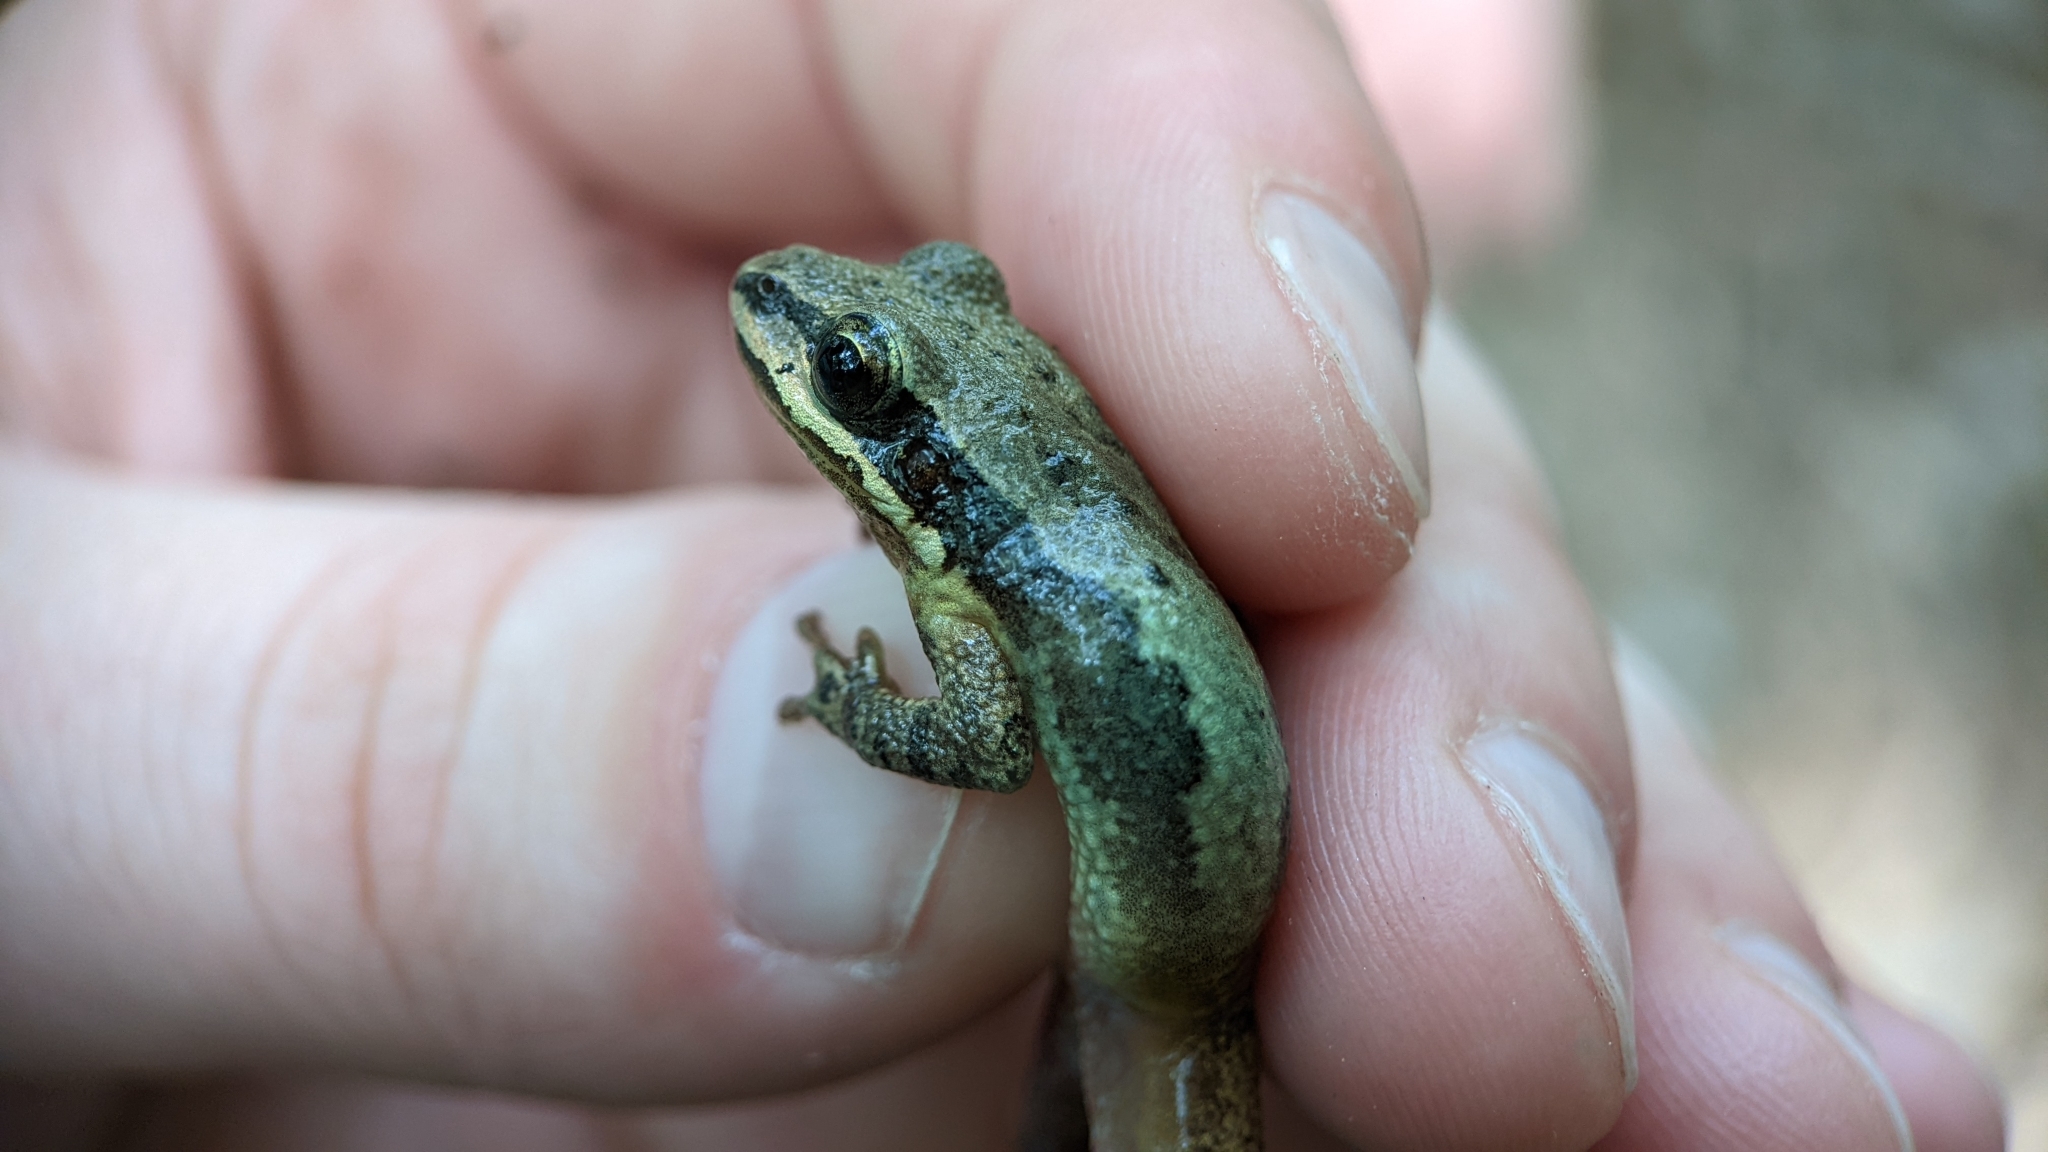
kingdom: Animalia
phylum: Chordata
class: Amphibia
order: Anura
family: Hylidae
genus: Pseudacris
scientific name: Pseudacris fouquettei
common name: Cajun chorus frog
